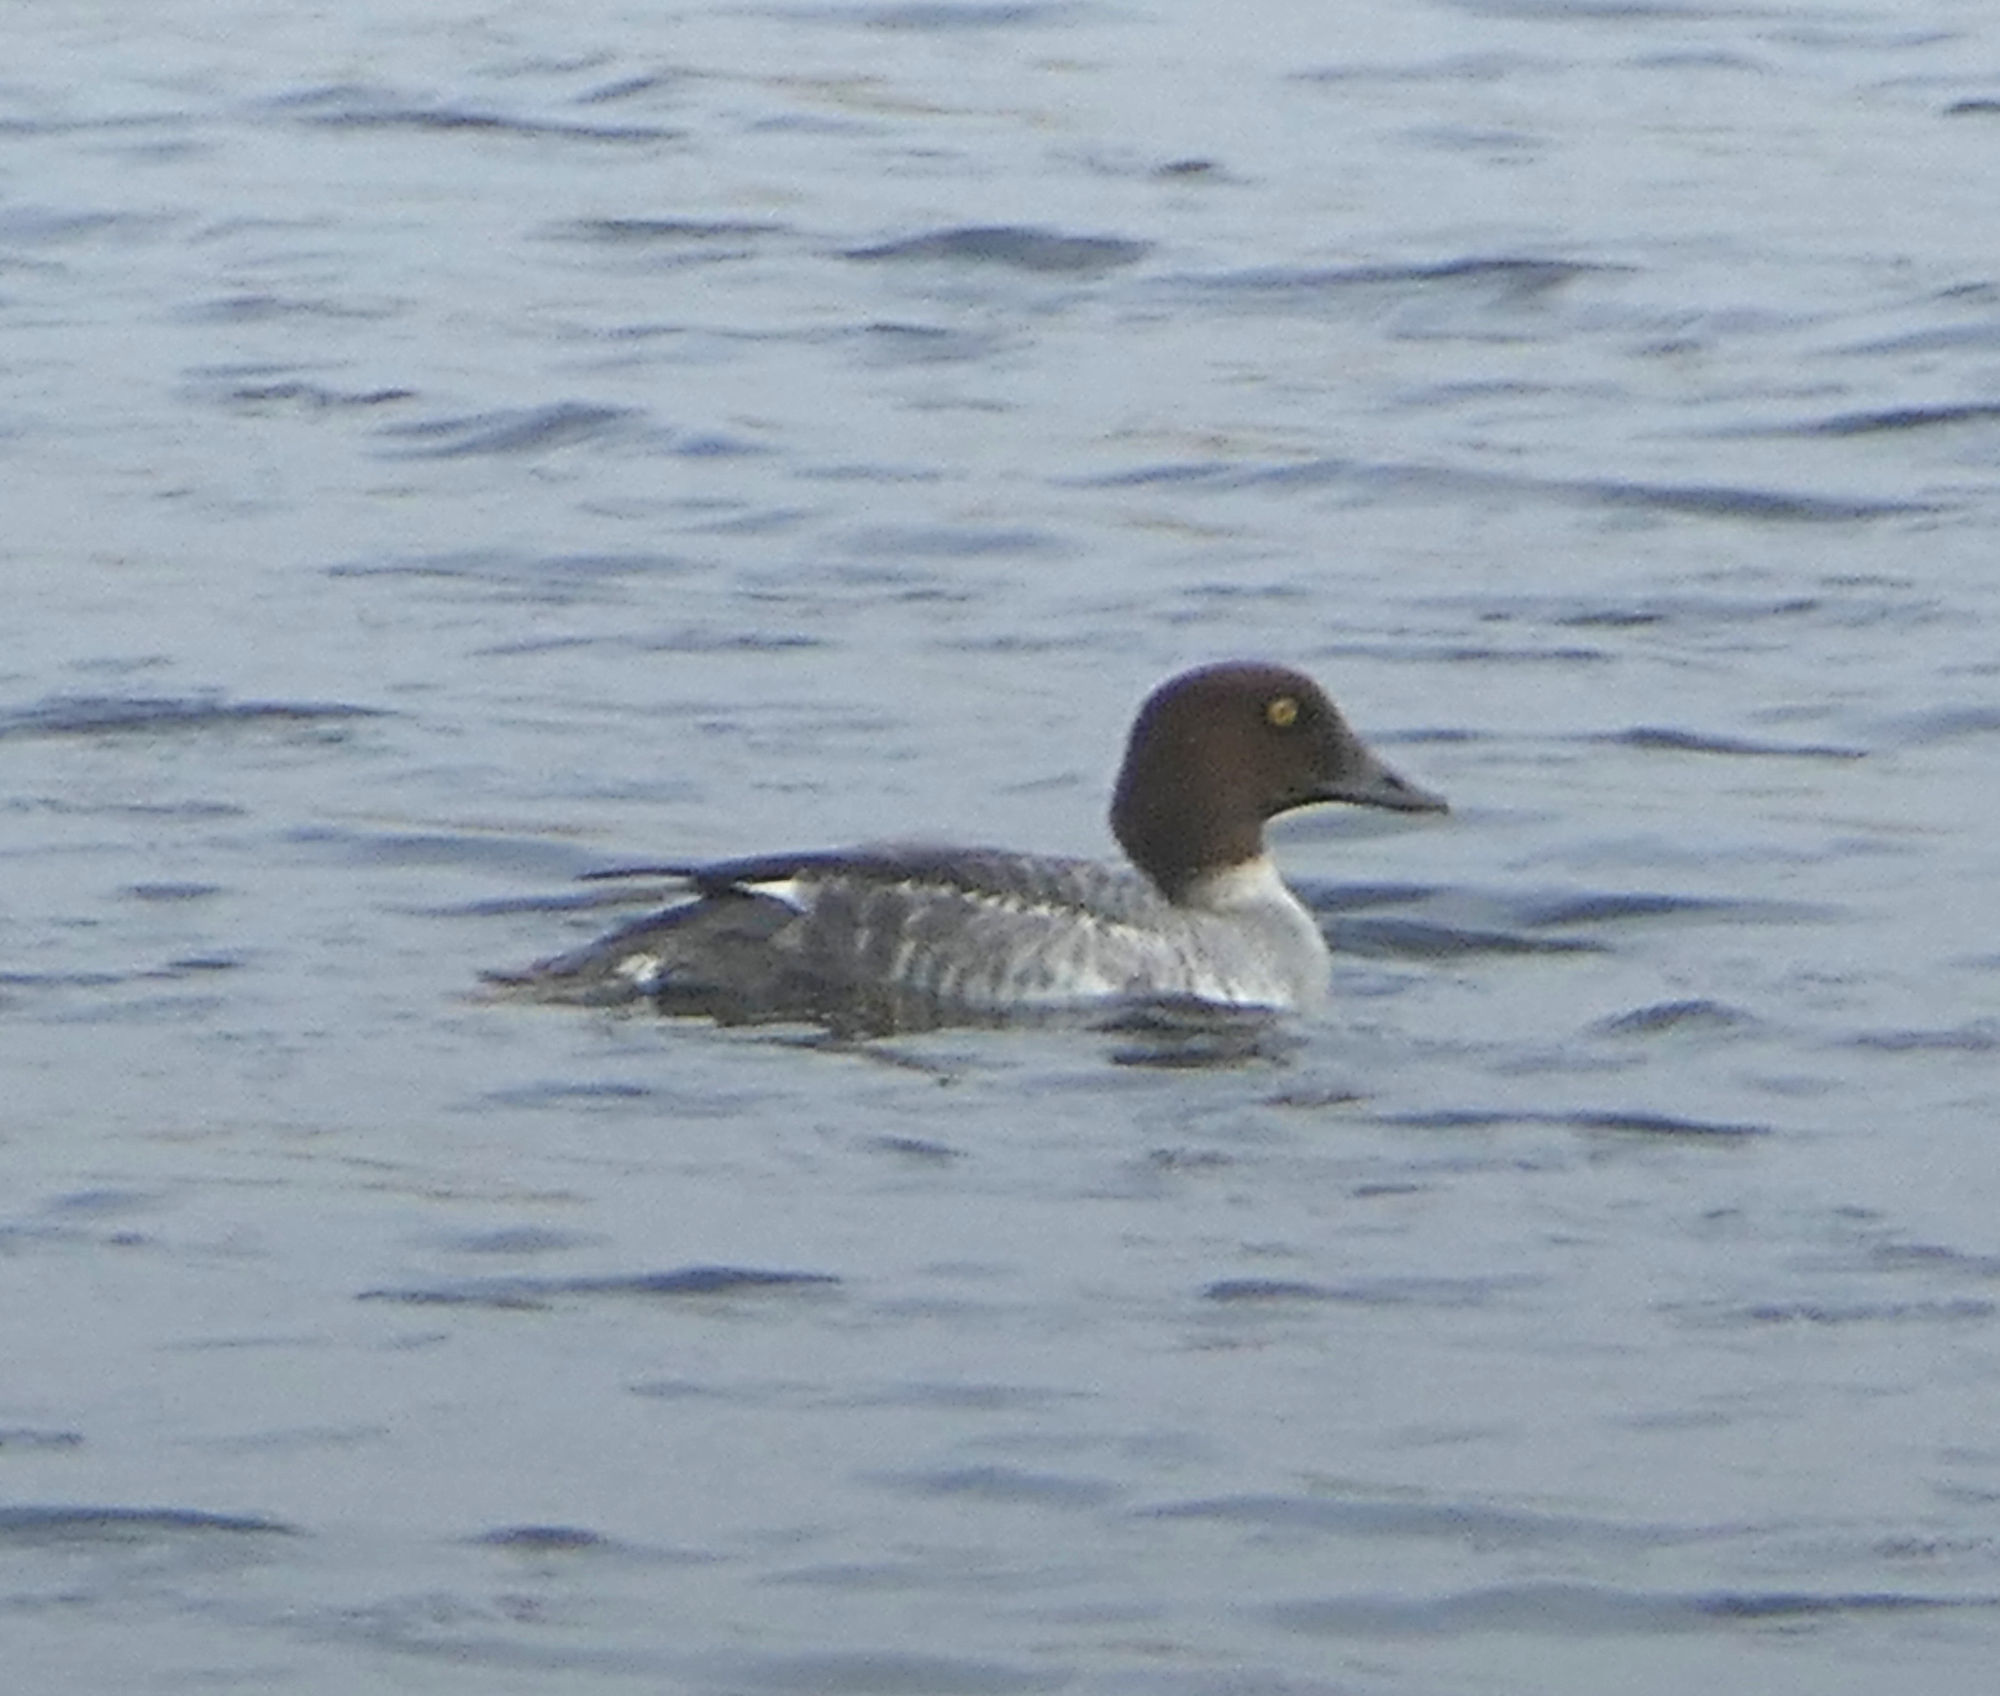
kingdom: Animalia
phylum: Chordata
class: Aves
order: Anseriformes
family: Anatidae
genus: Bucephala
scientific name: Bucephala clangula
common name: Common goldeneye
